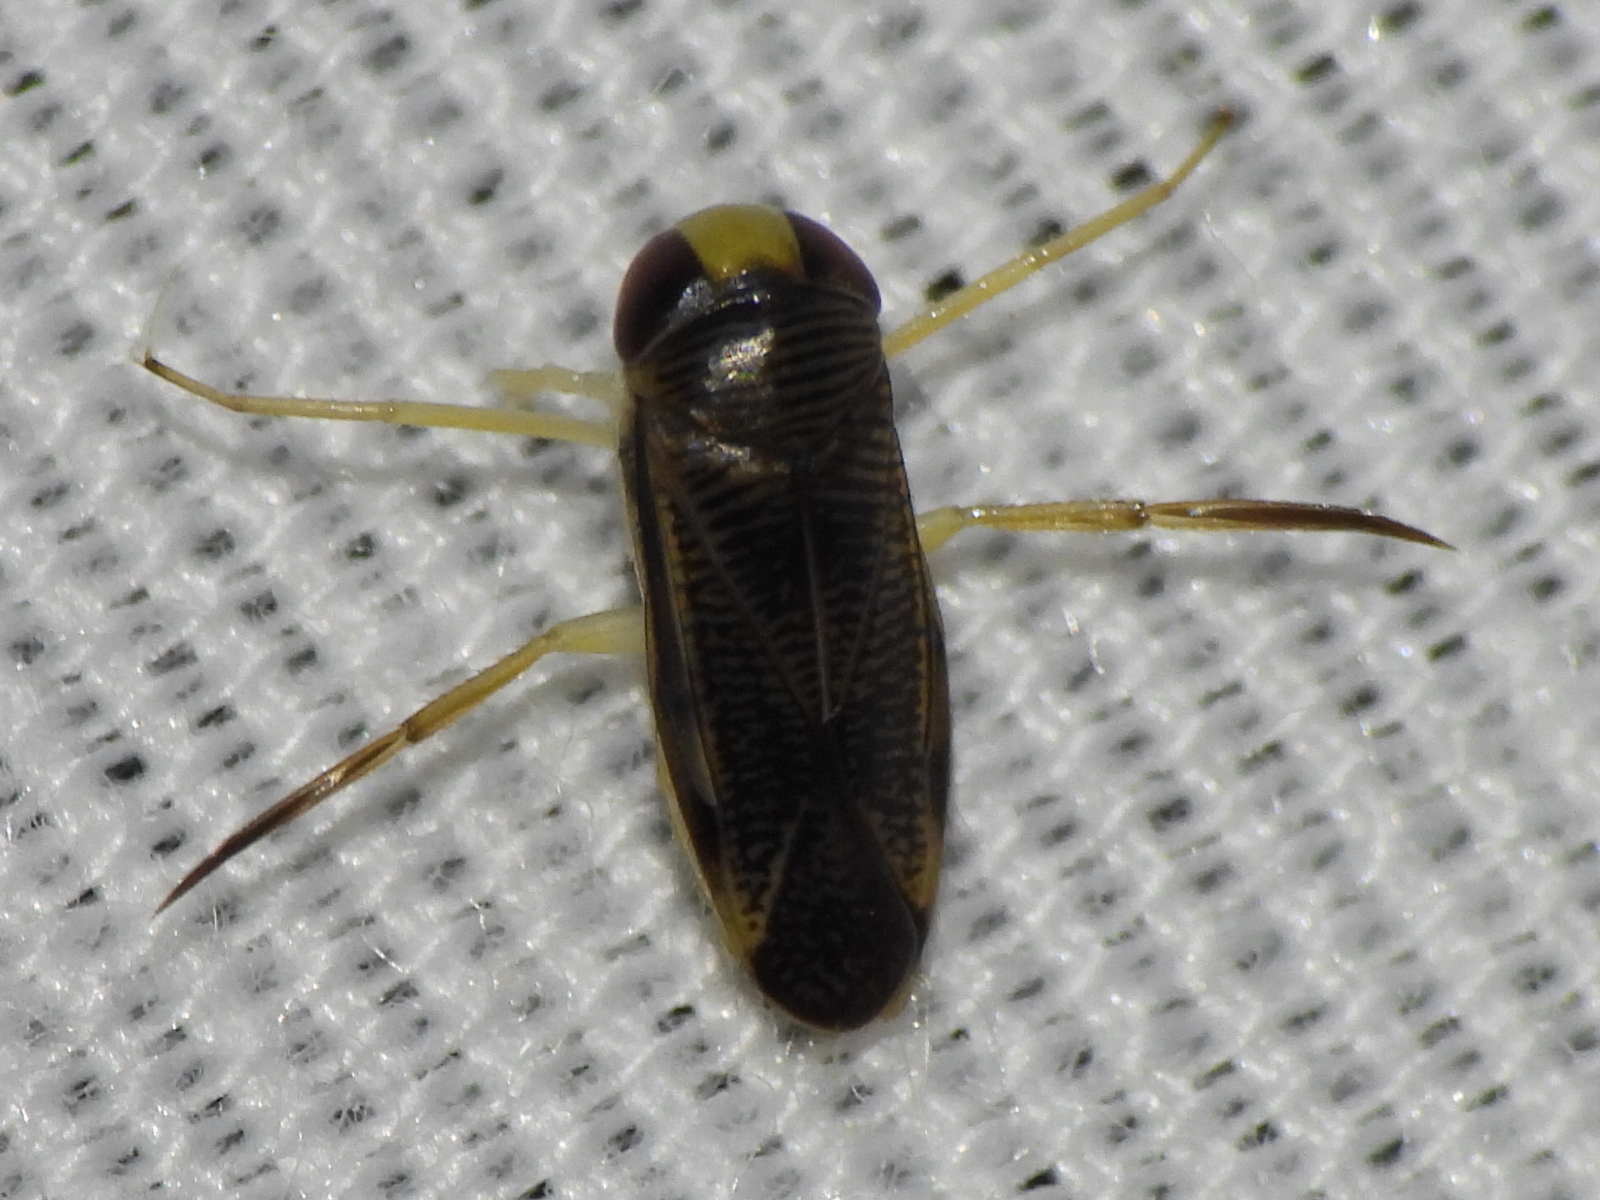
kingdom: Animalia
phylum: Arthropoda
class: Insecta
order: Hemiptera
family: Corixidae
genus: Sigara
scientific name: Sigara
